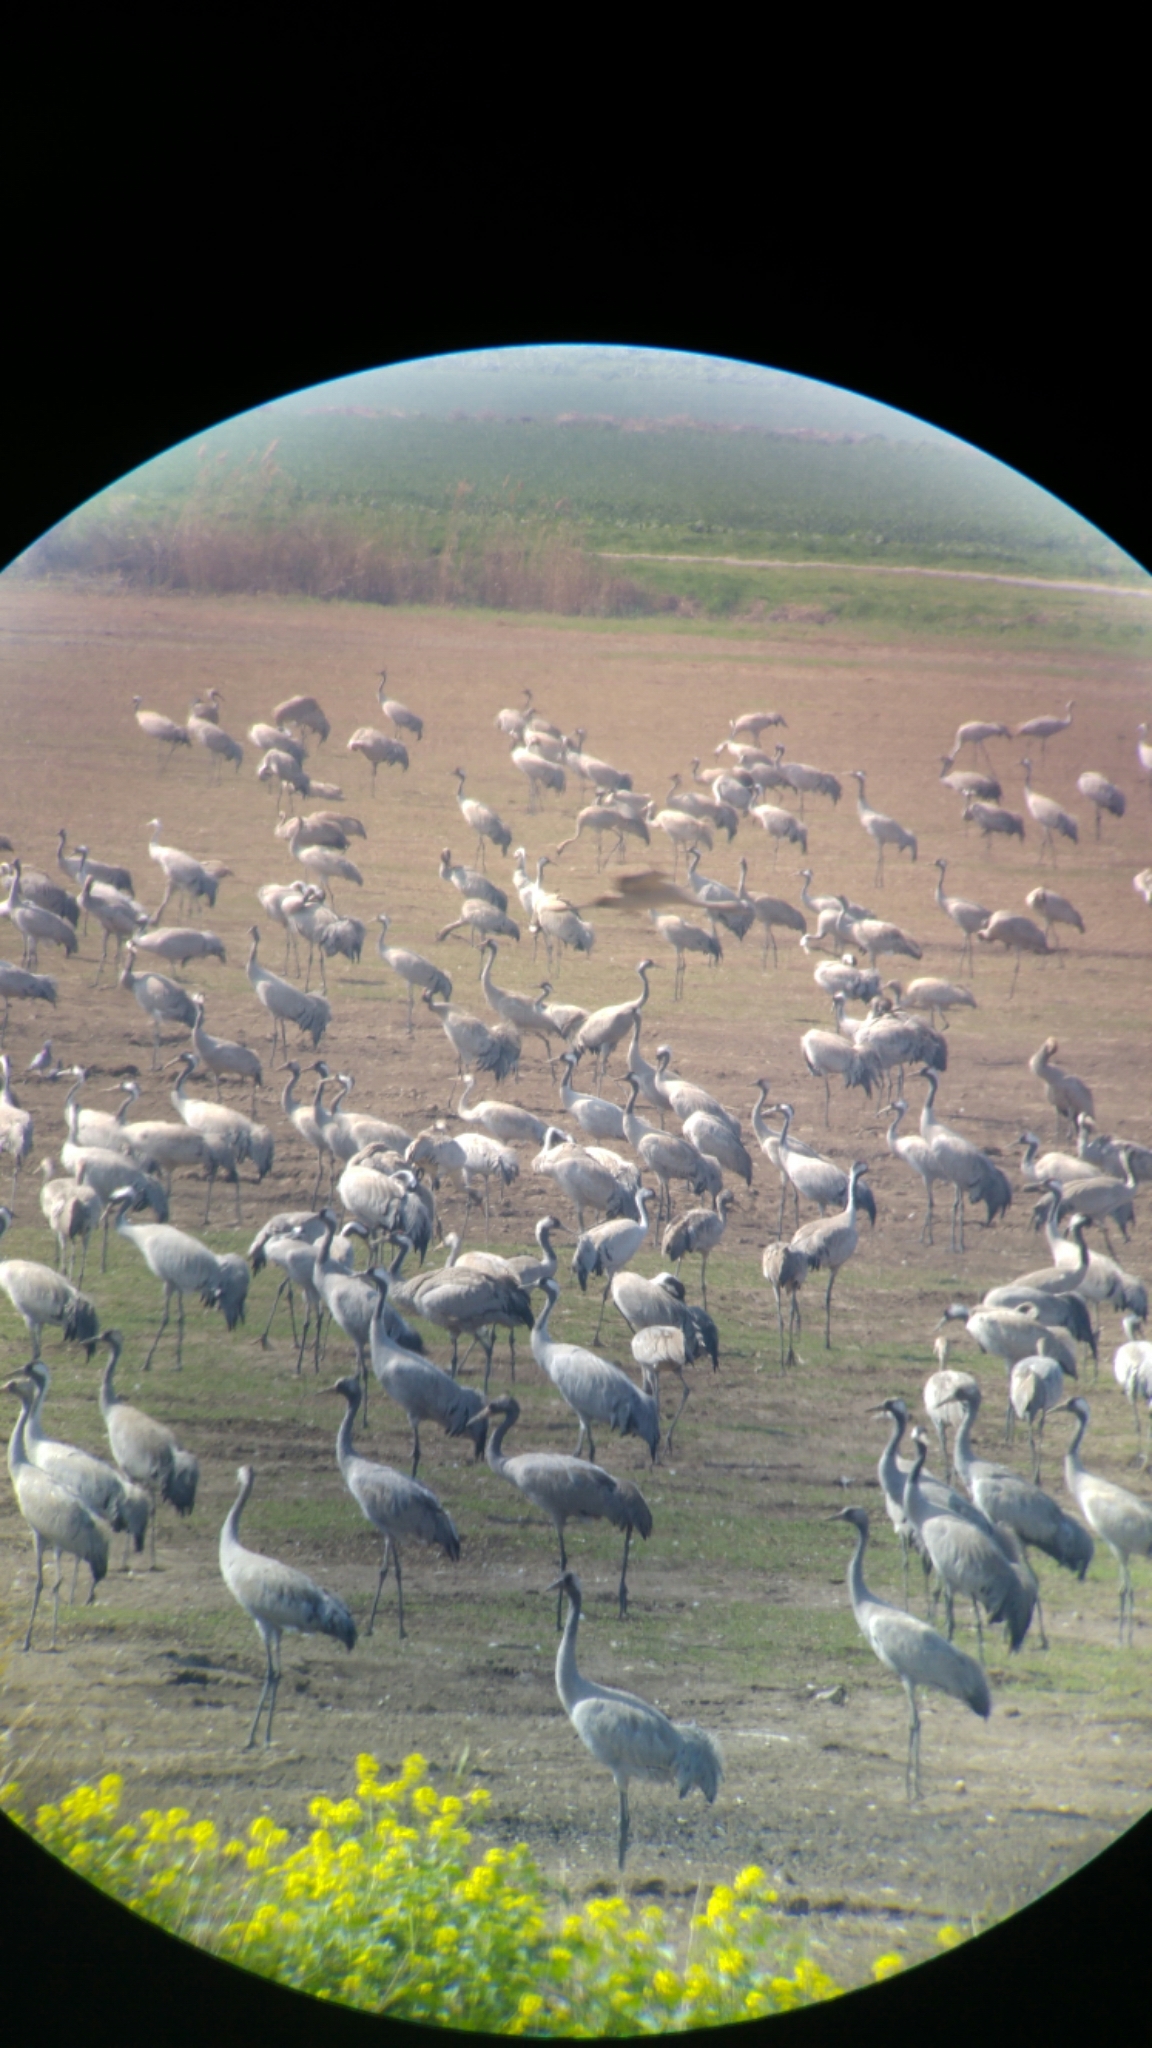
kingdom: Animalia
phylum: Chordata
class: Aves
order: Gruiformes
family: Gruidae
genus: Grus
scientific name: Grus grus
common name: Common crane
